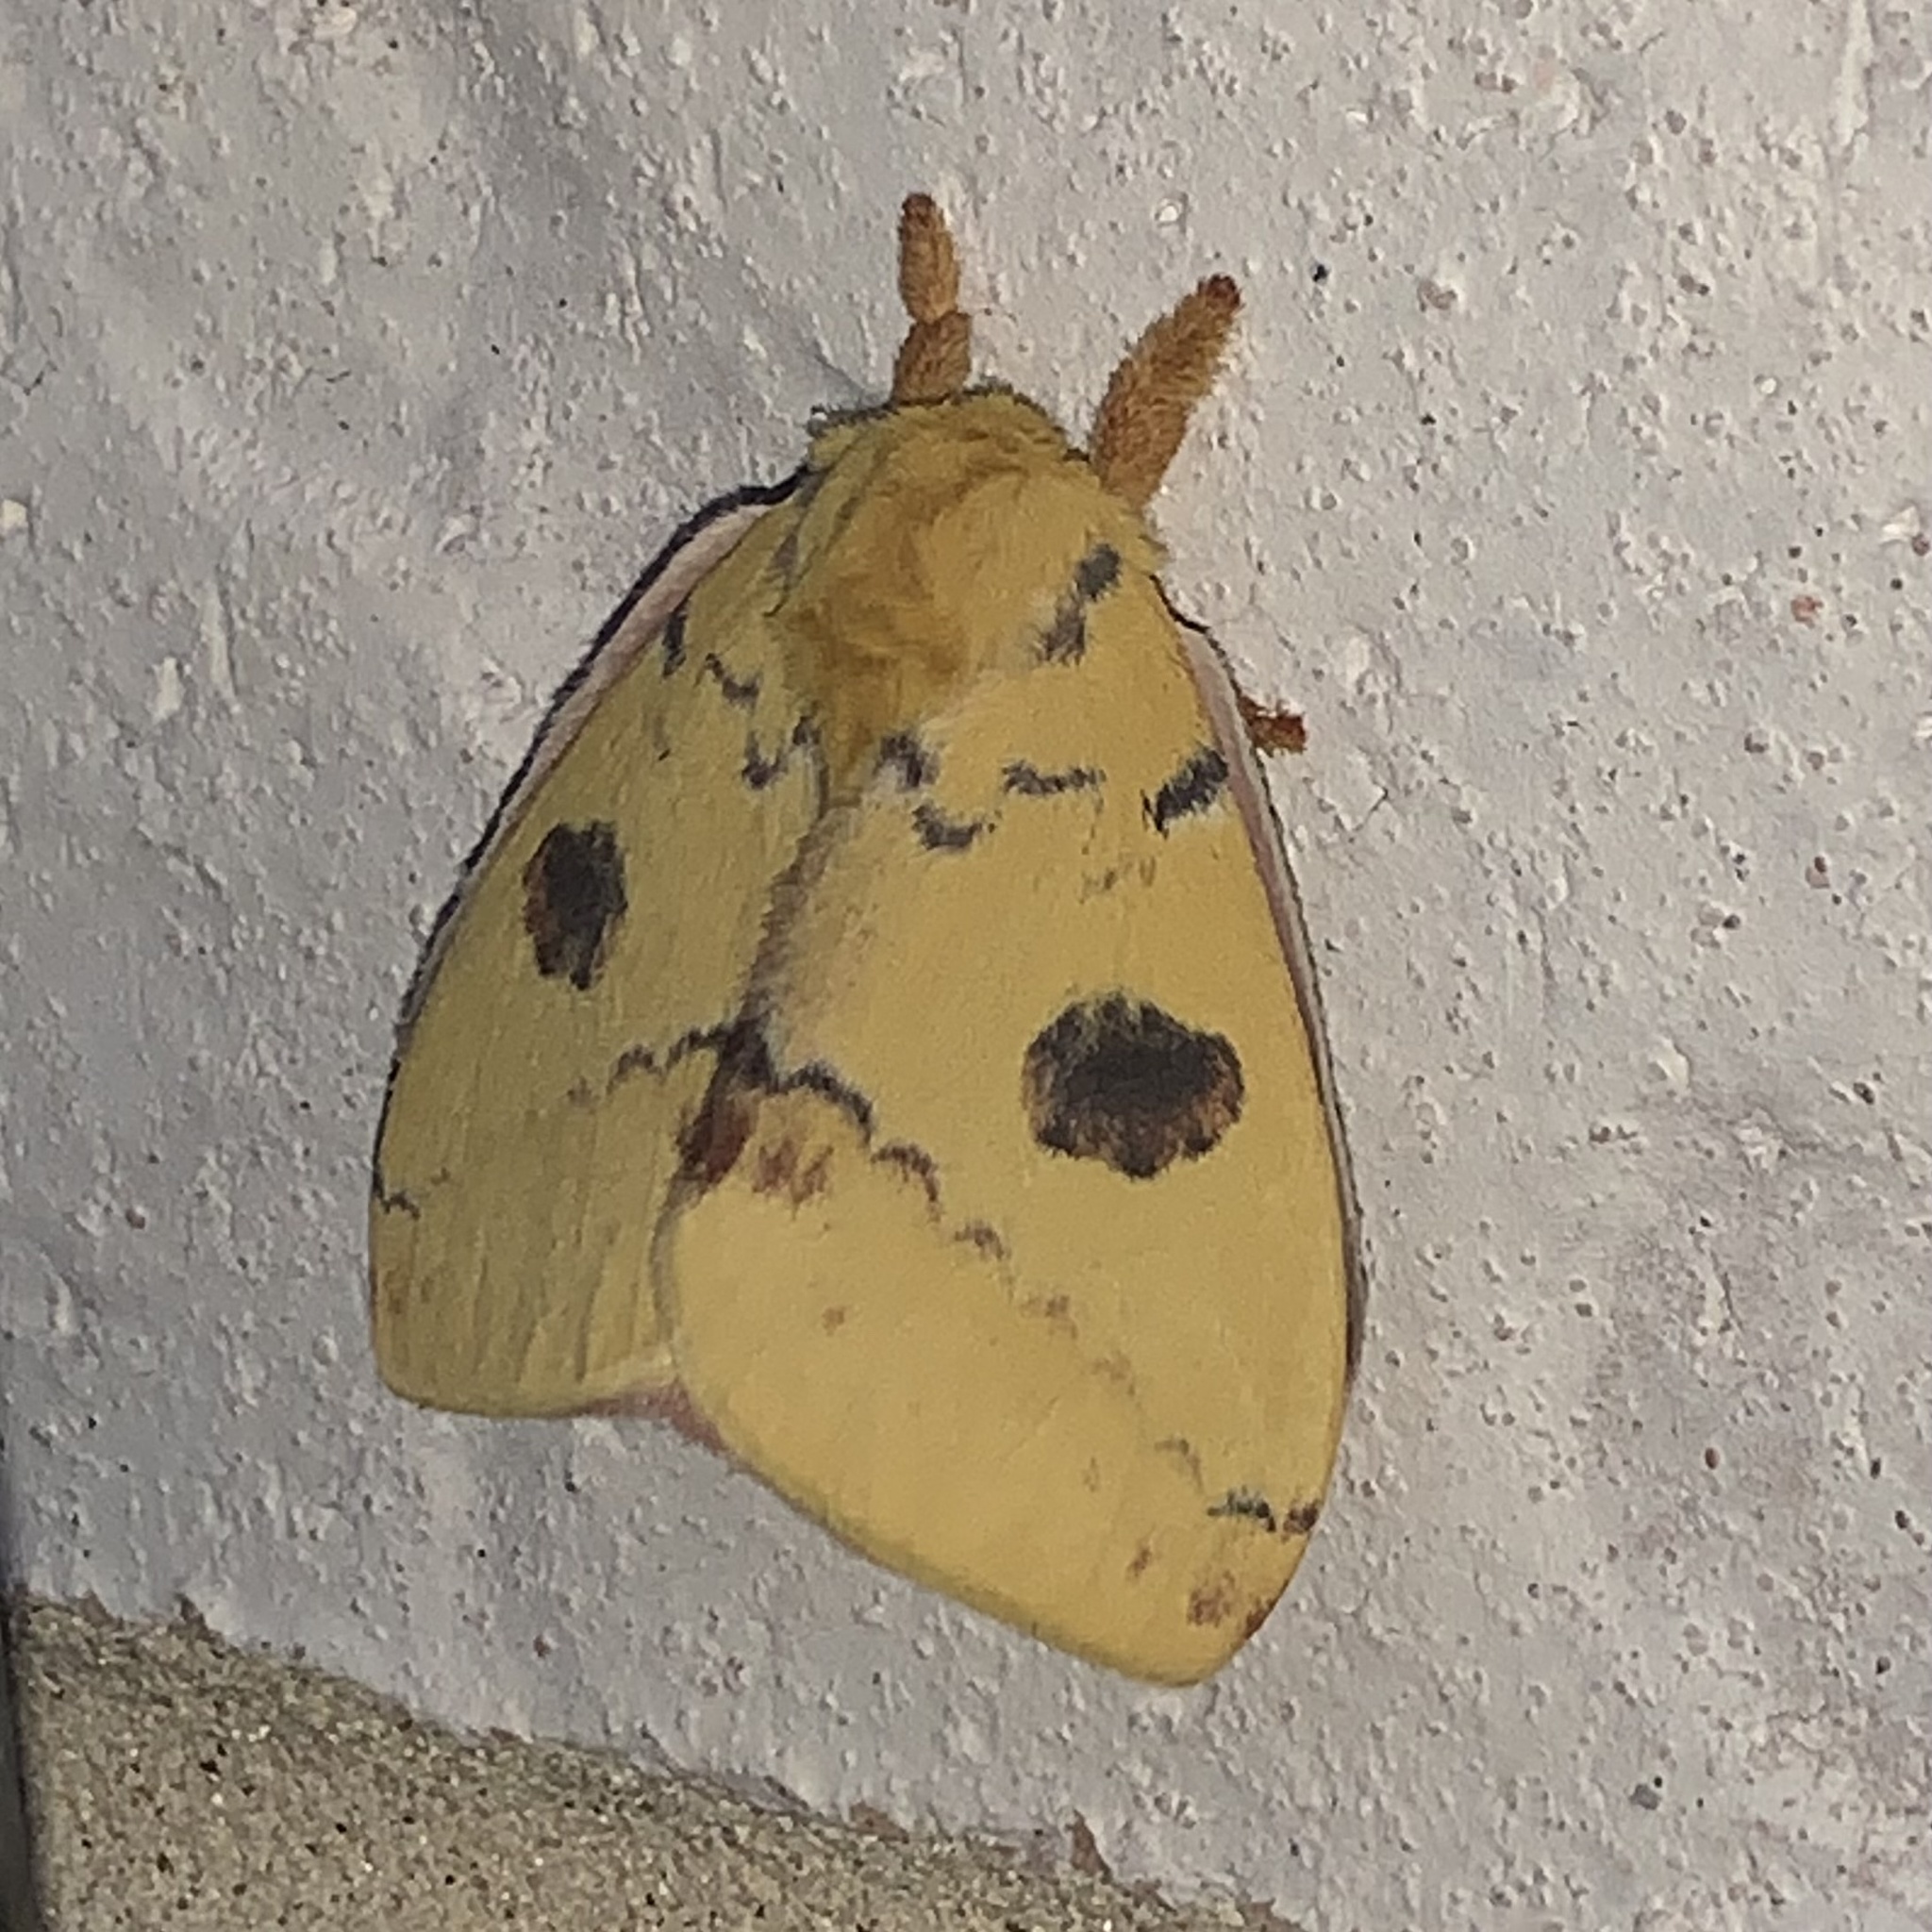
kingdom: Animalia
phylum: Arthropoda
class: Insecta
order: Lepidoptera
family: Saturniidae
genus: Automeris
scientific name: Automeris io
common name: Io moth
